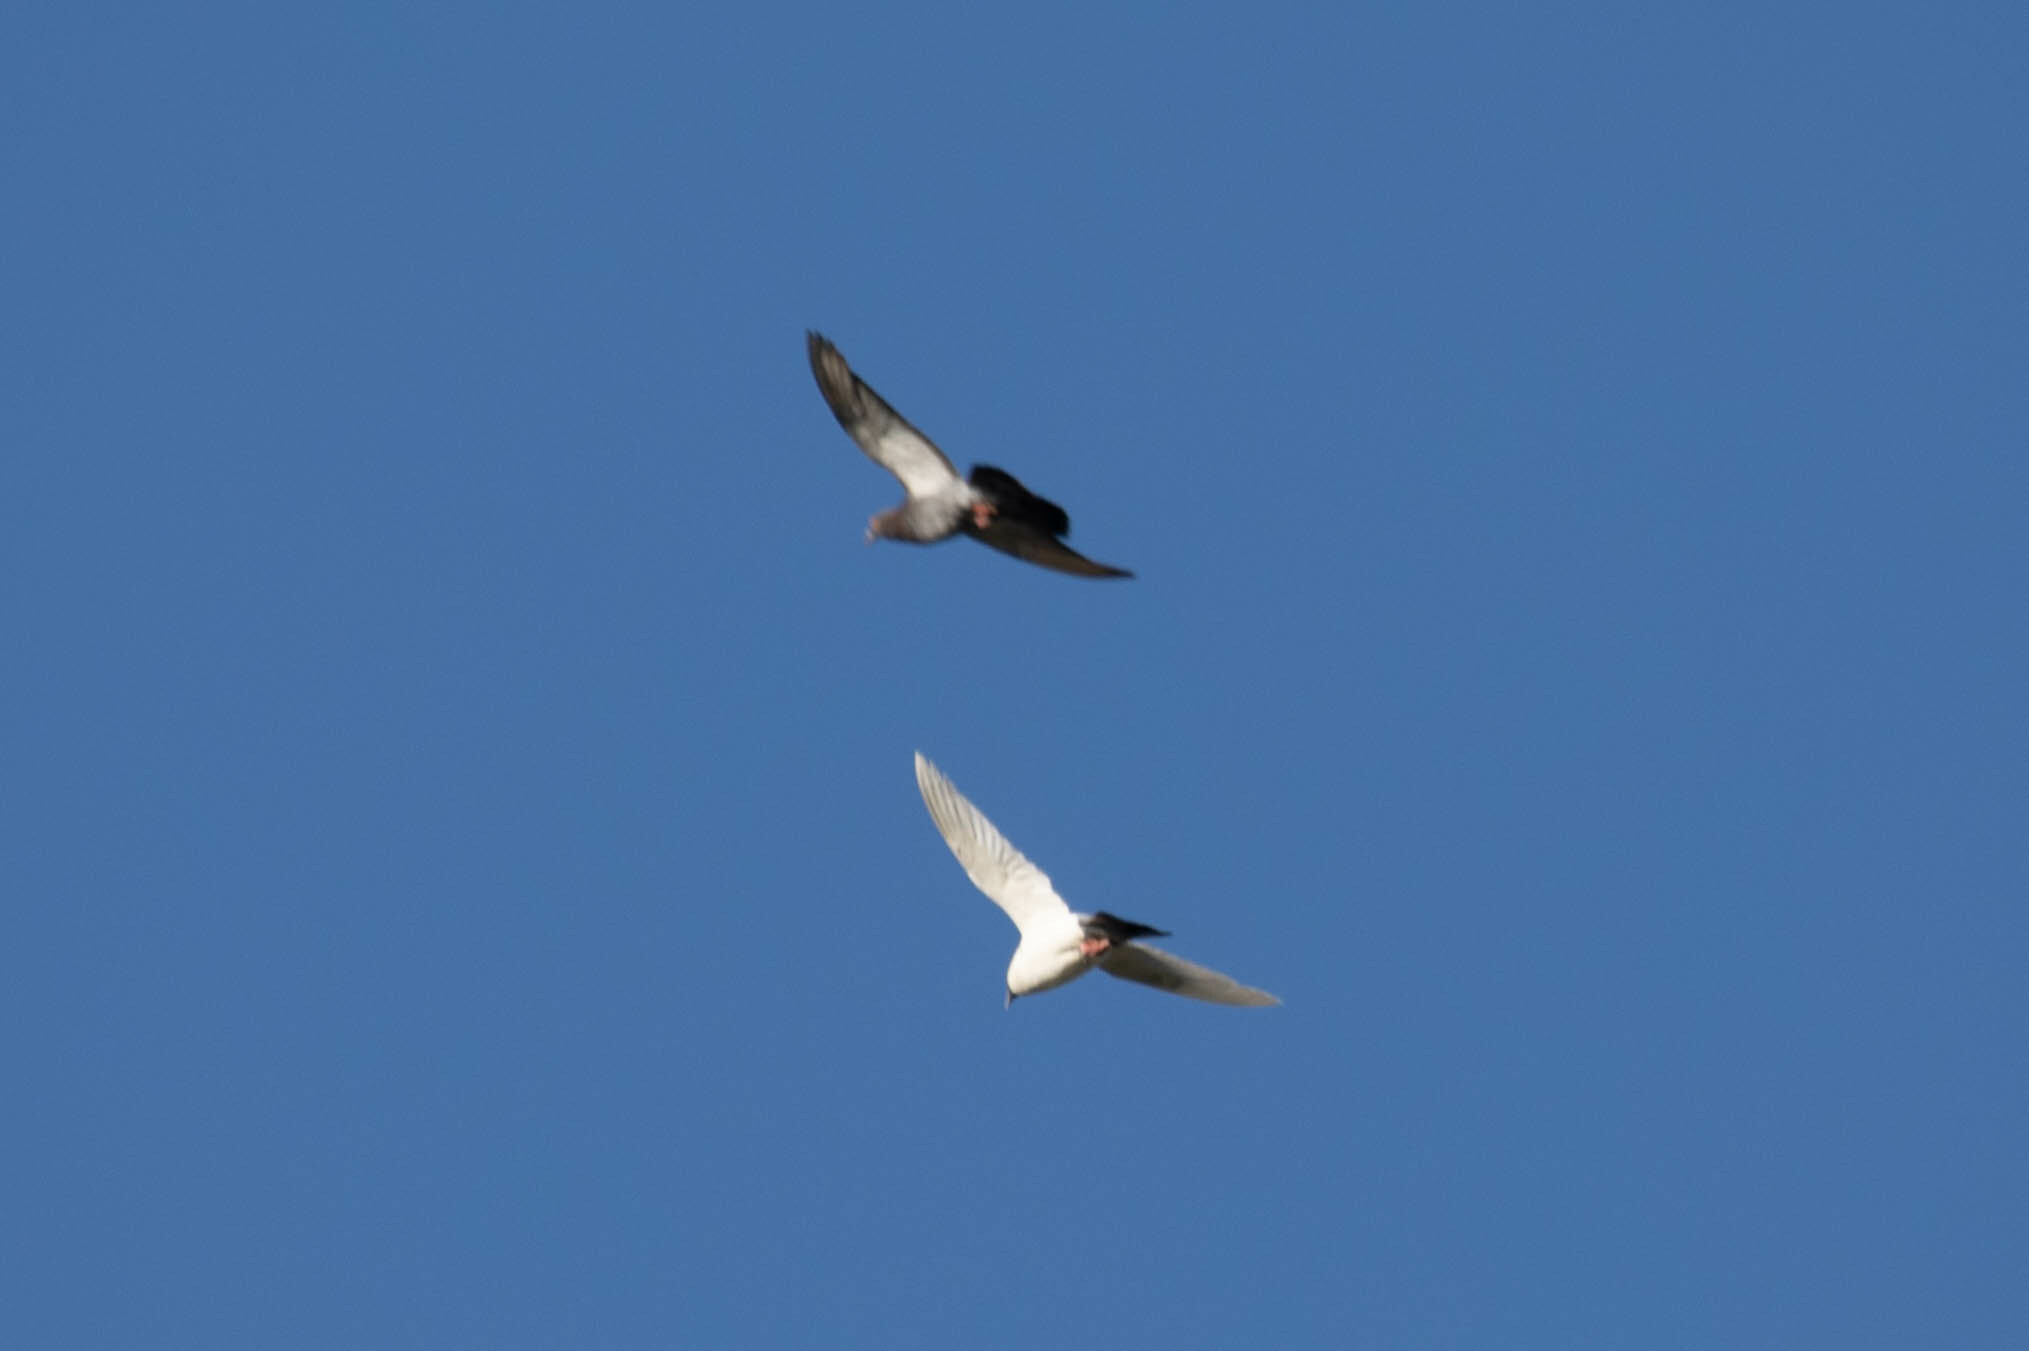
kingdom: Animalia
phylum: Chordata
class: Aves
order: Columbiformes
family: Columbidae
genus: Columba
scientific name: Columba livia
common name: Rock pigeon
